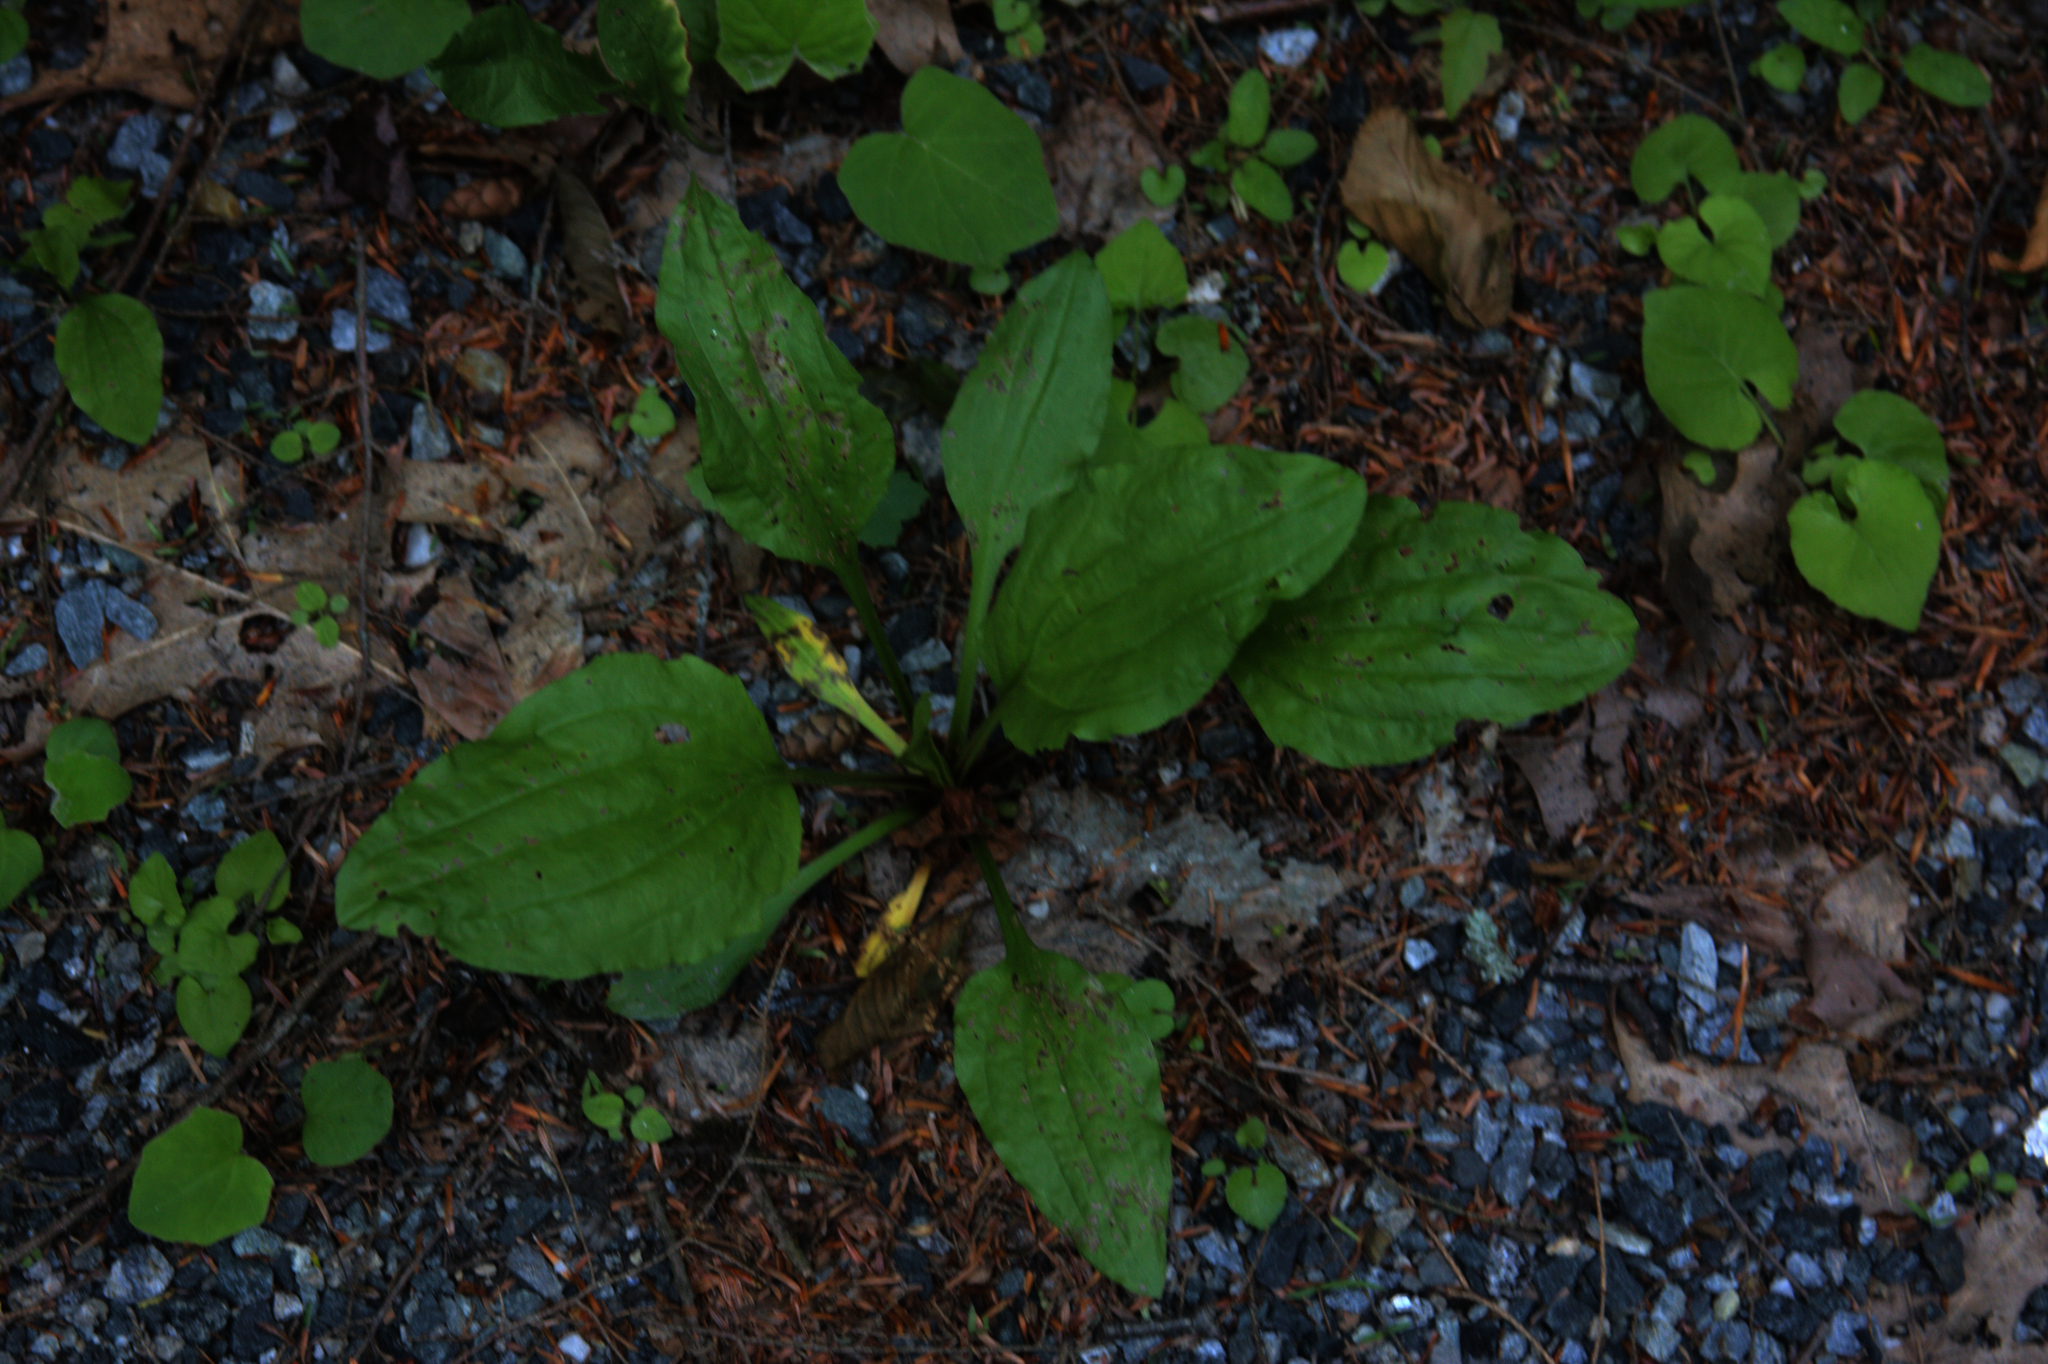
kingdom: Plantae
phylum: Tracheophyta
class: Magnoliopsida
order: Lamiales
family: Plantaginaceae
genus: Plantago
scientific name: Plantago rugelii
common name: American plantain
